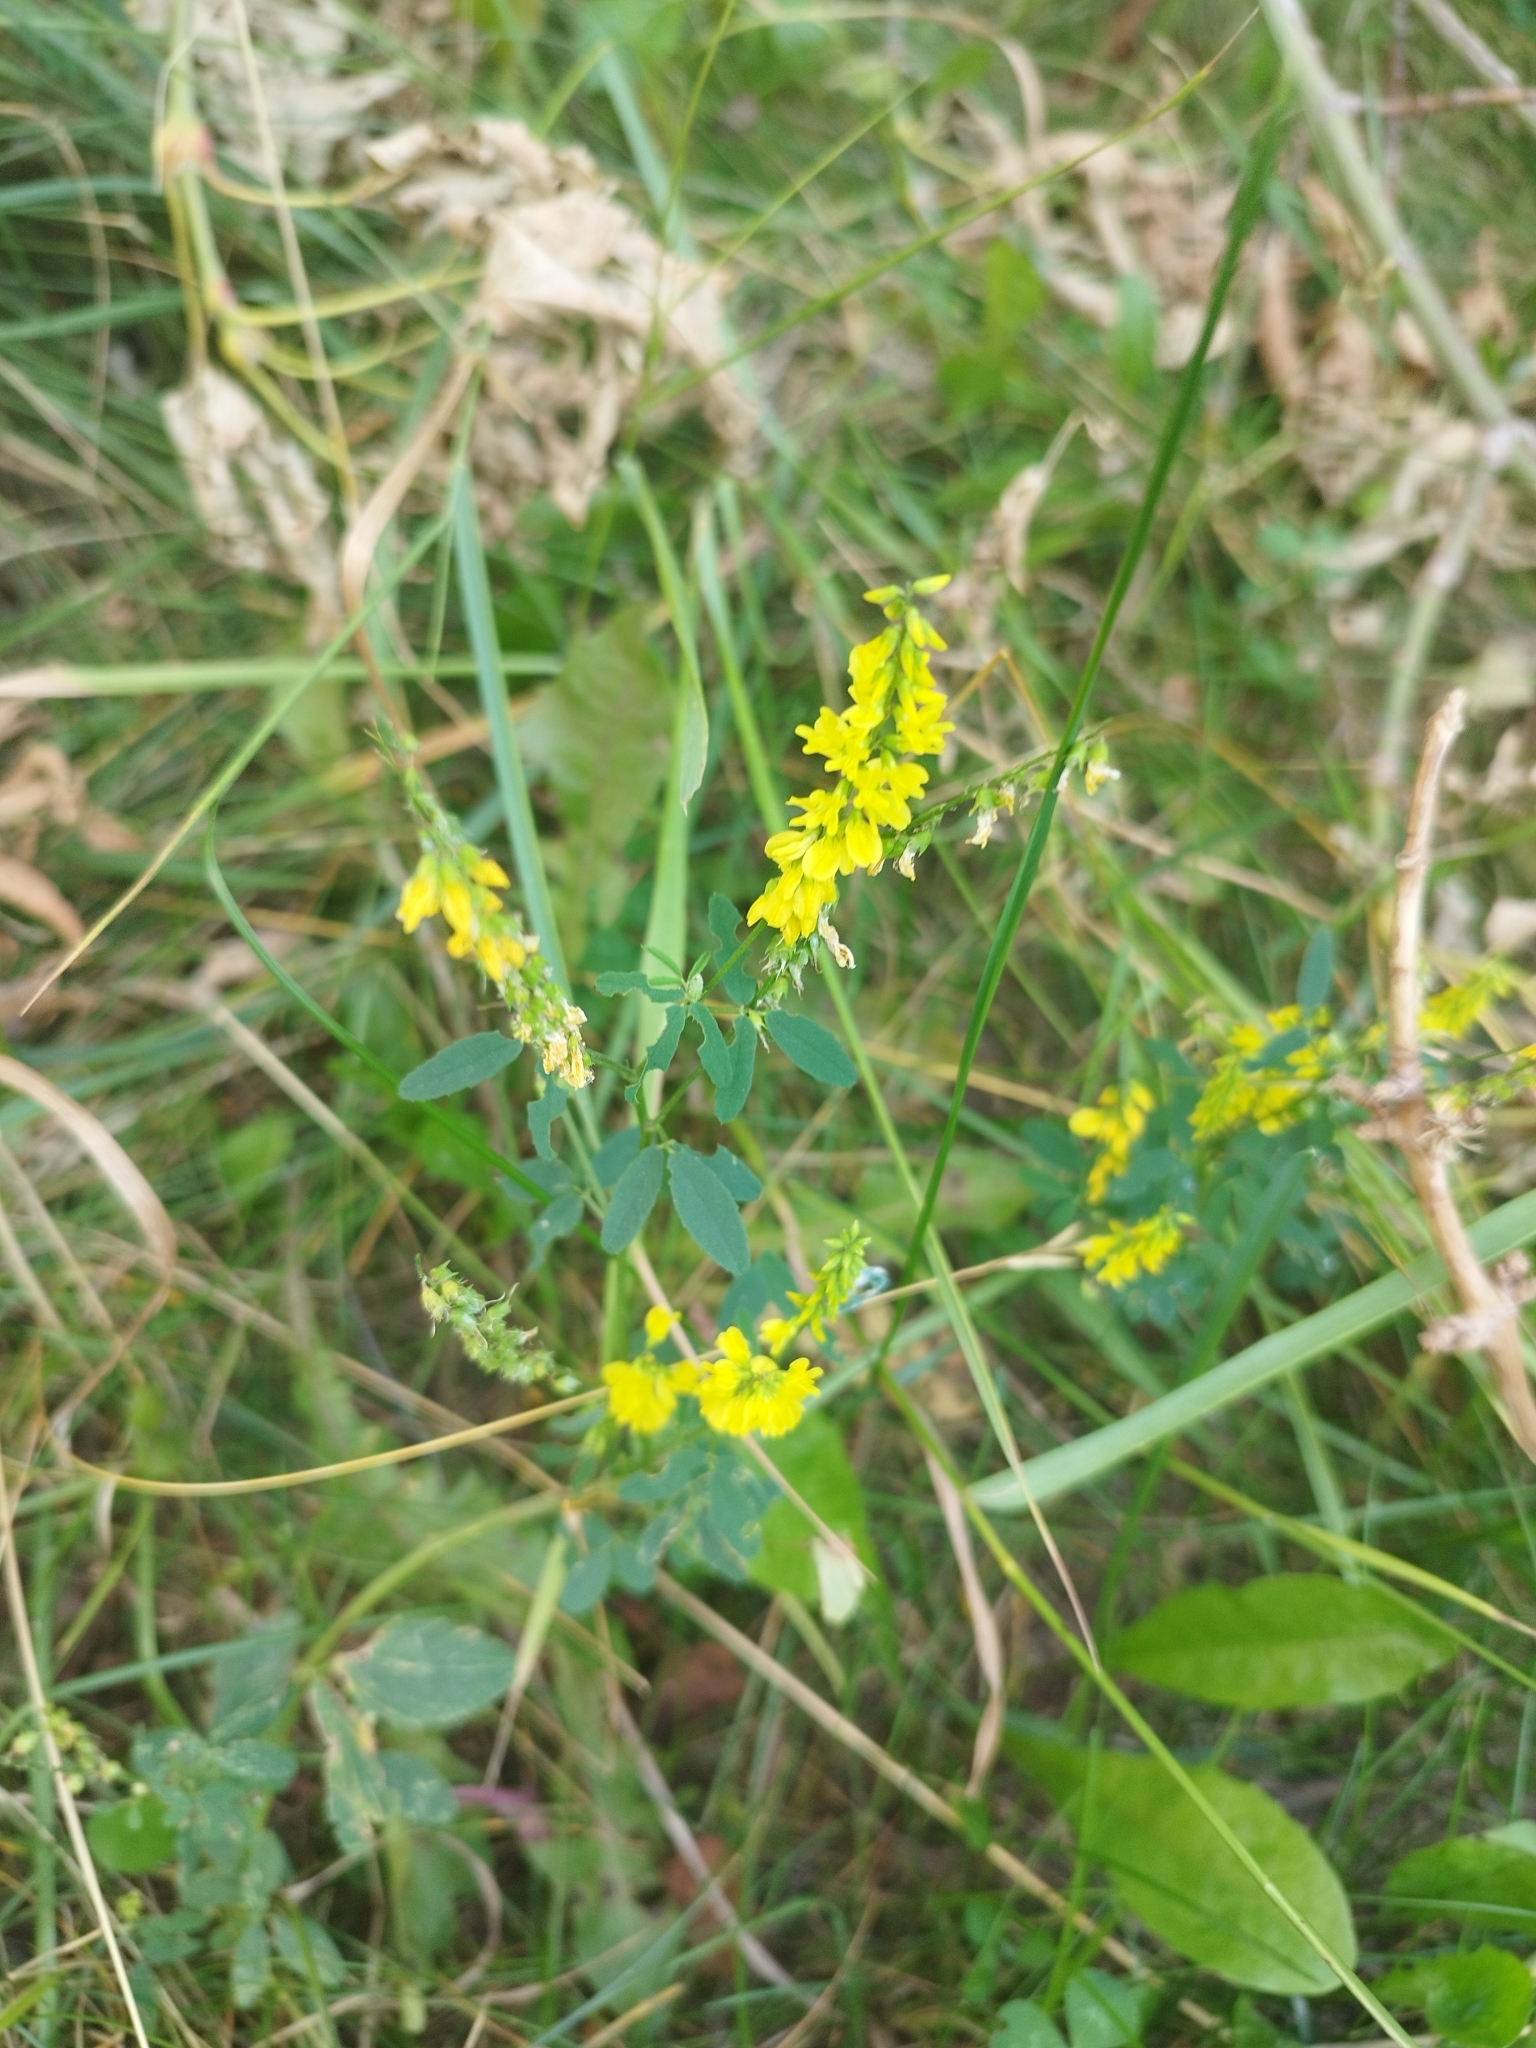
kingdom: Plantae
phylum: Tracheophyta
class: Magnoliopsida
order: Fabales
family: Fabaceae
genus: Melilotus
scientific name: Melilotus officinalis
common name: Sweetclover
